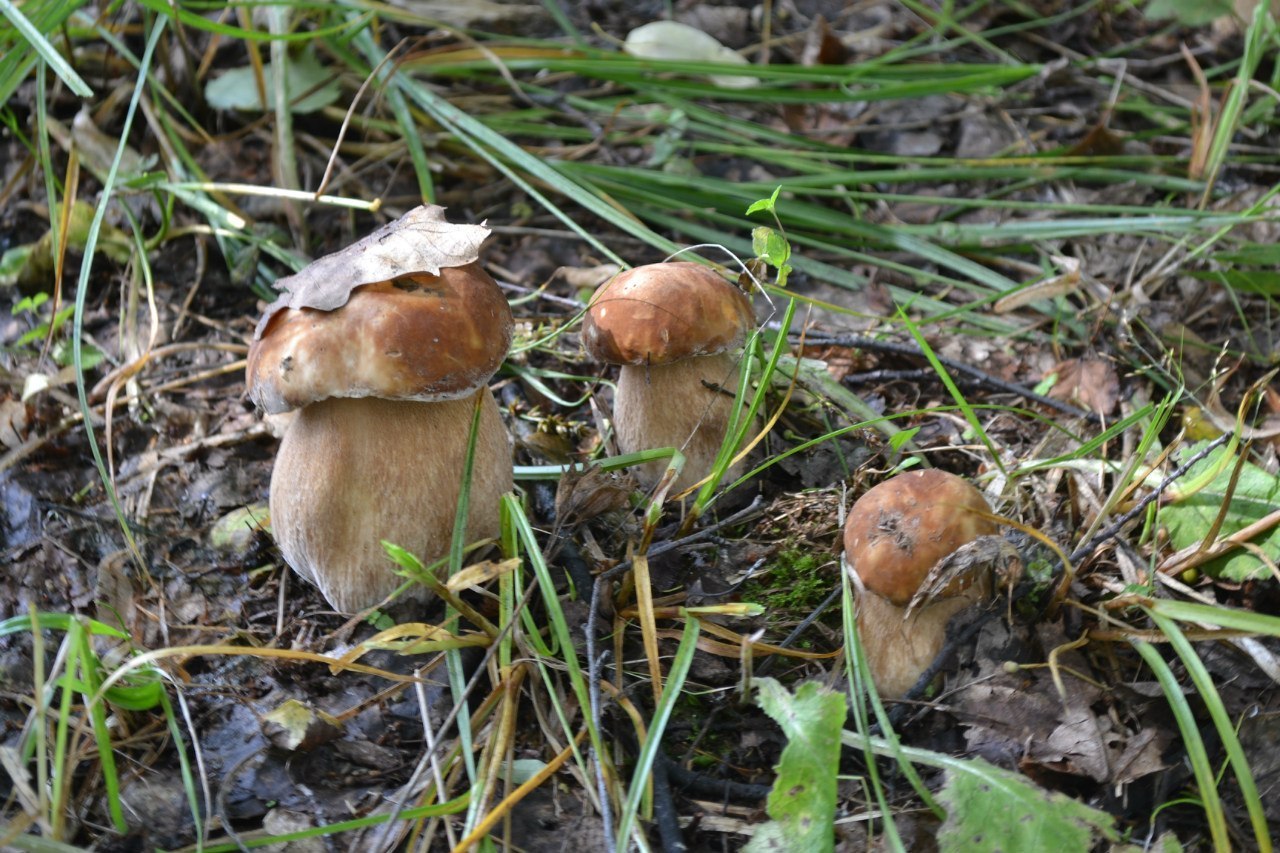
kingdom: Fungi
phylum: Basidiomycota
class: Agaricomycetes
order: Boletales
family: Boletaceae
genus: Boletus
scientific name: Boletus reticulatus
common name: Summer bolete
